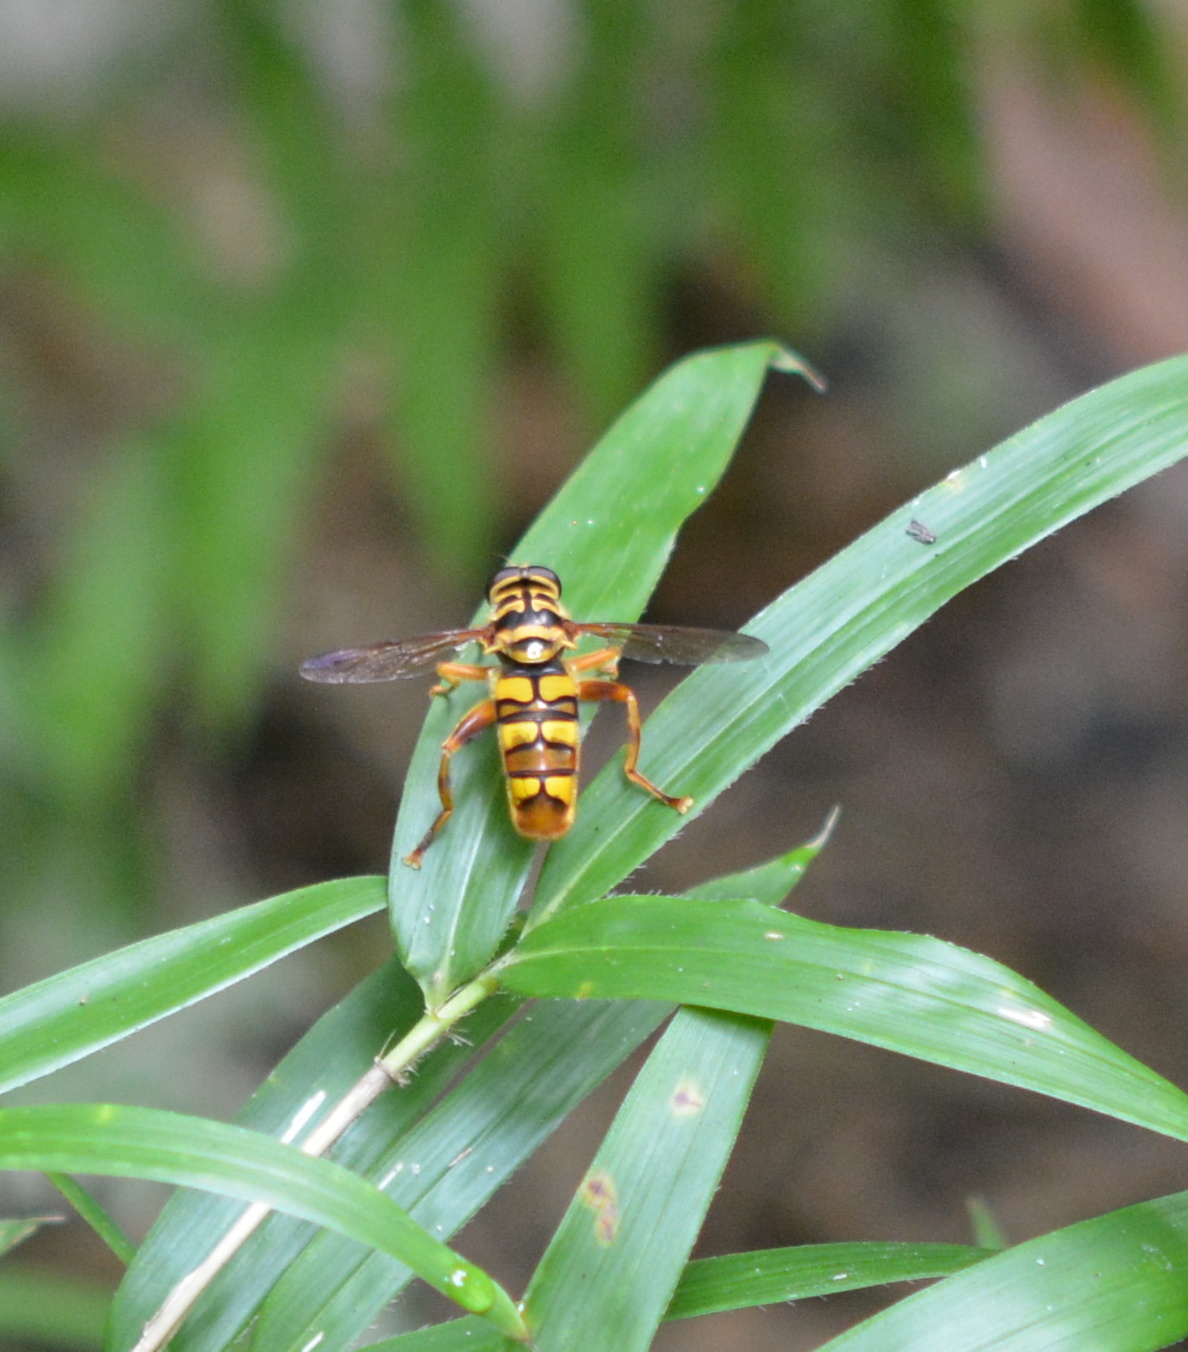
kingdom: Animalia
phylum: Arthropoda
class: Insecta
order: Diptera
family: Syrphidae
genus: Milesia
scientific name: Milesia virginiensis
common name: Virginia giant
